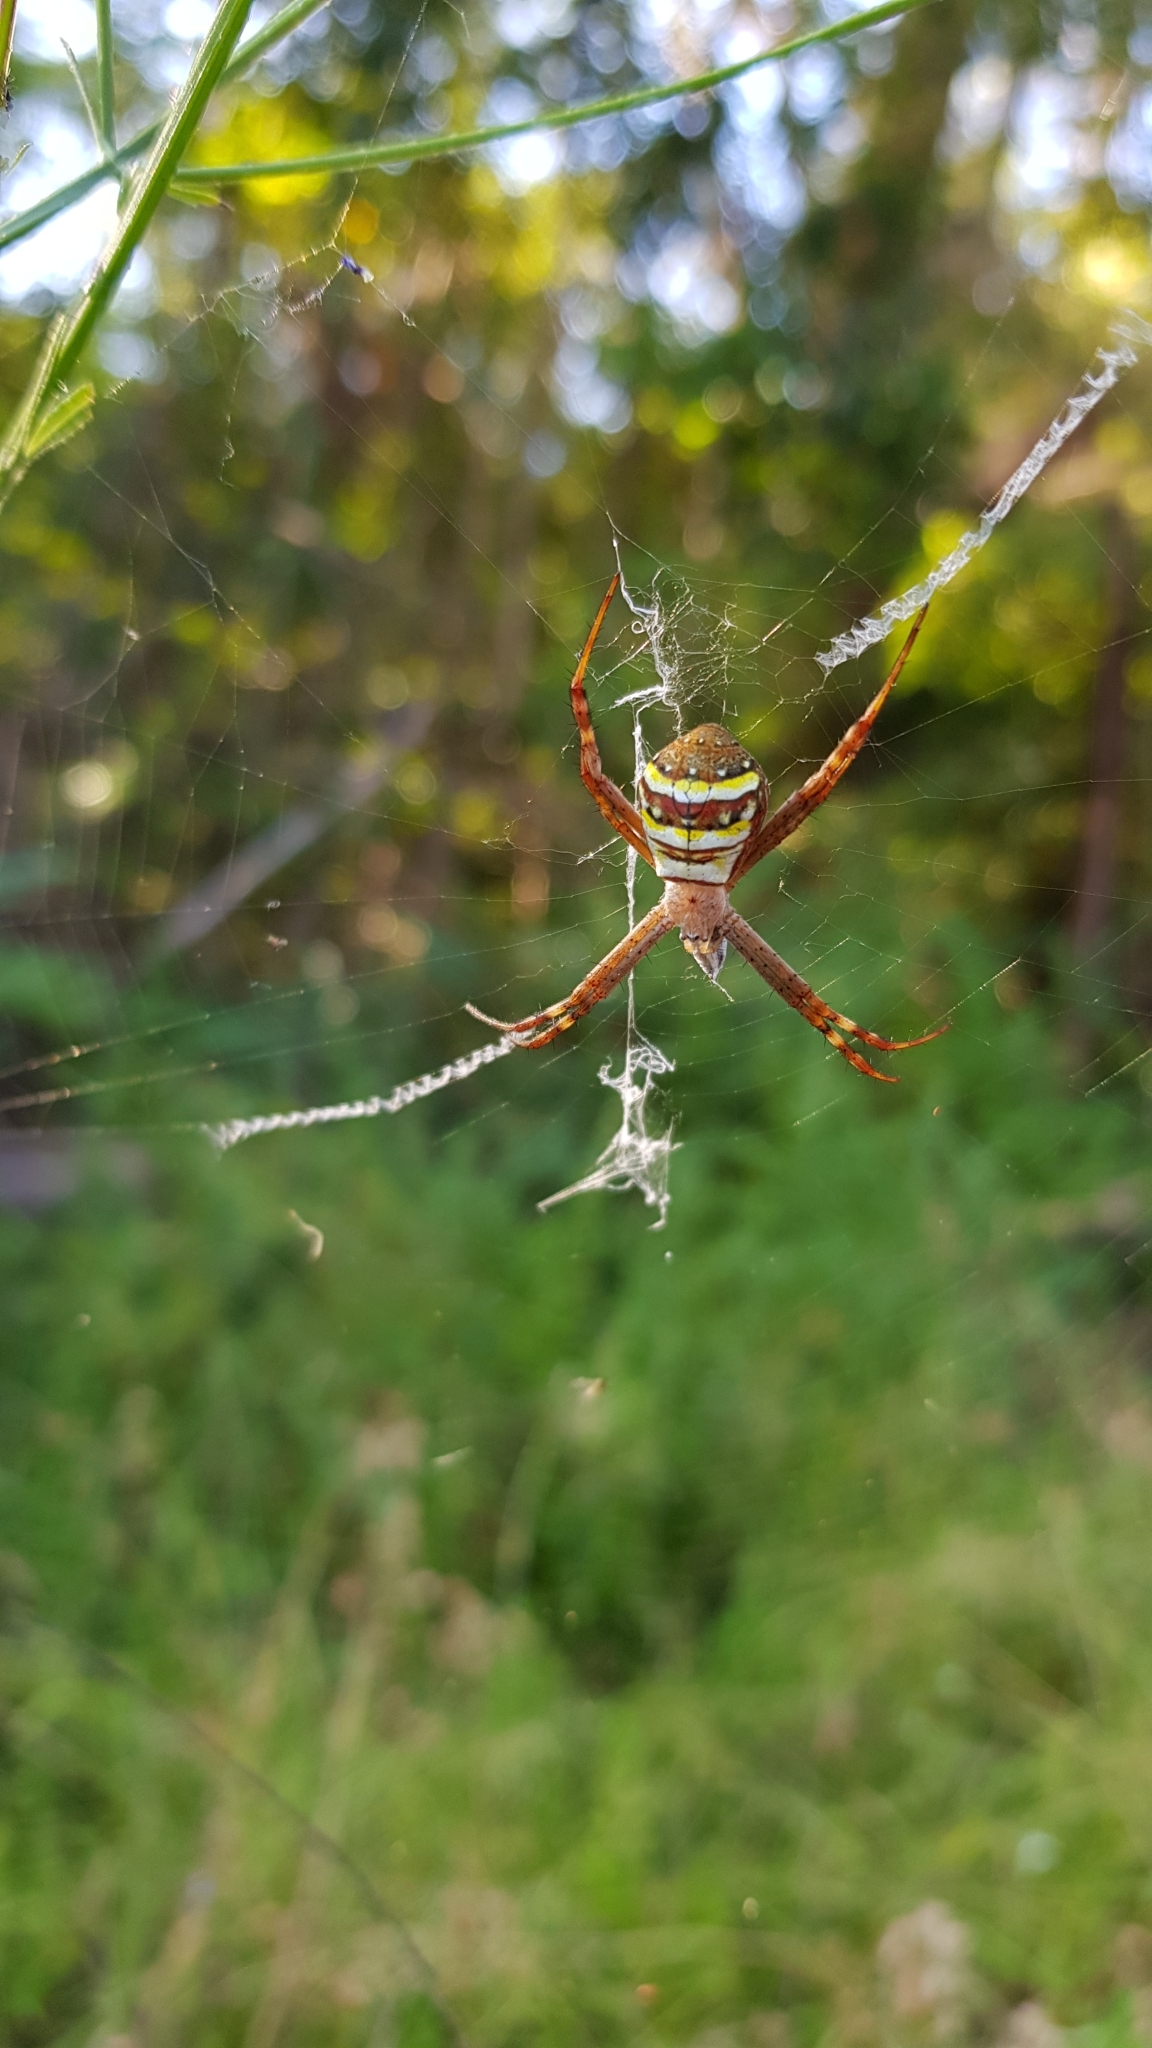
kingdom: Animalia
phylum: Arthropoda
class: Arachnida
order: Araneae
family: Araneidae
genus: Argiope
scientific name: Argiope keyserlingi
